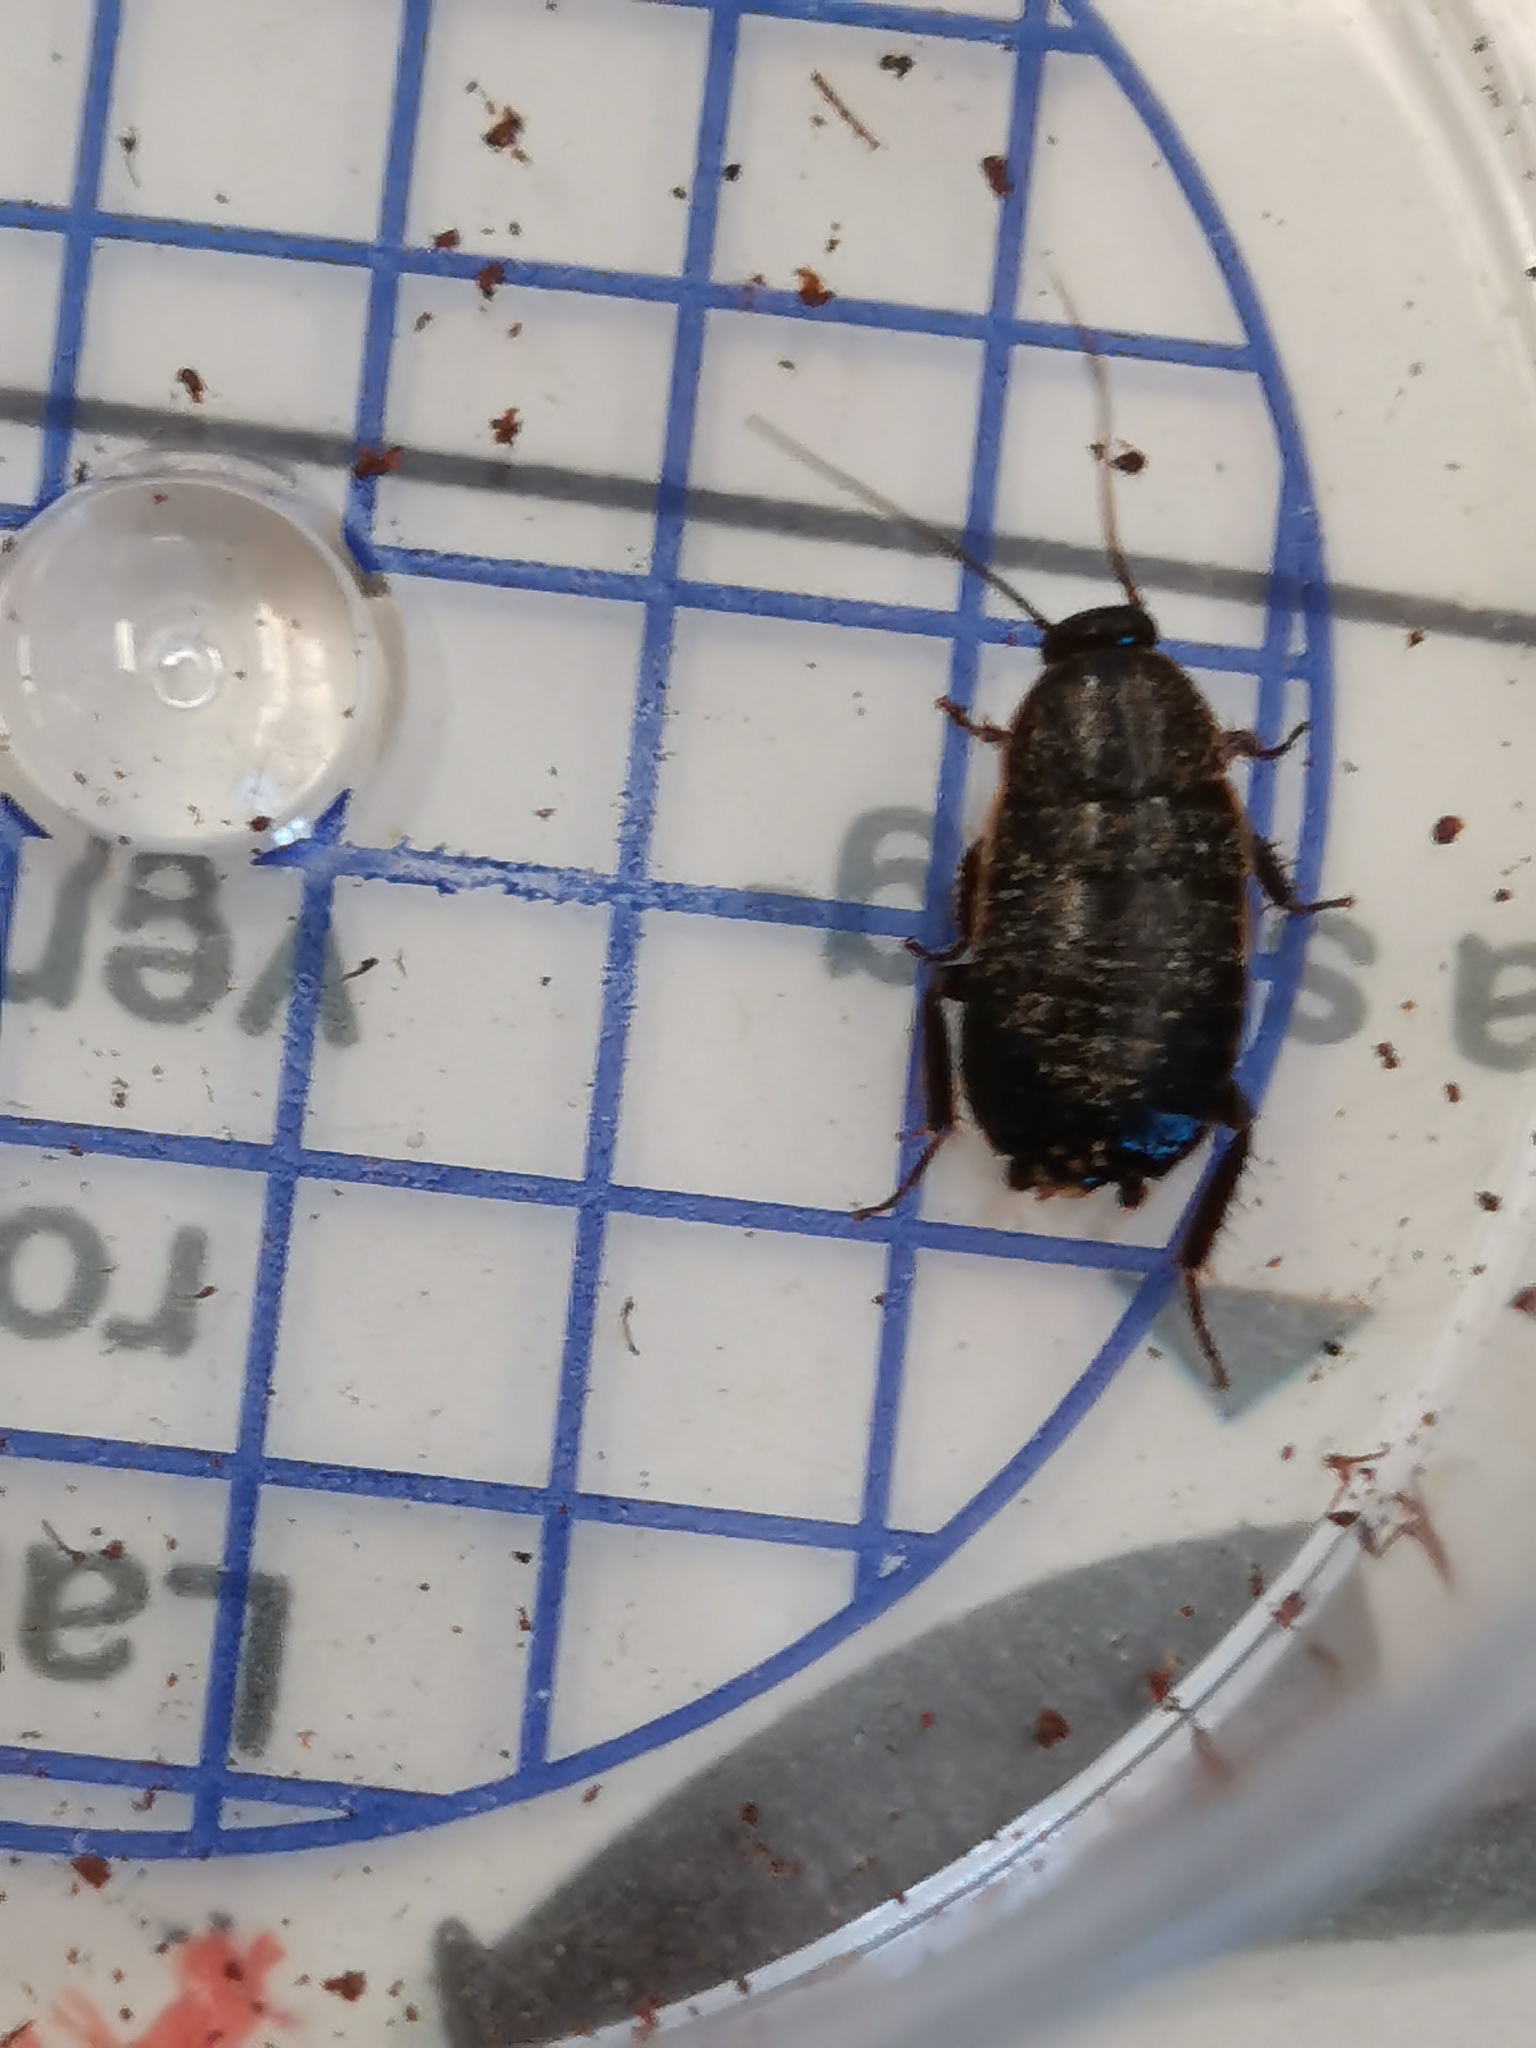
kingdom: Animalia
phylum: Arthropoda
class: Insecta
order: Blattodea
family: Ectobiidae
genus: Loboptera
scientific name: Loboptera canariensis
